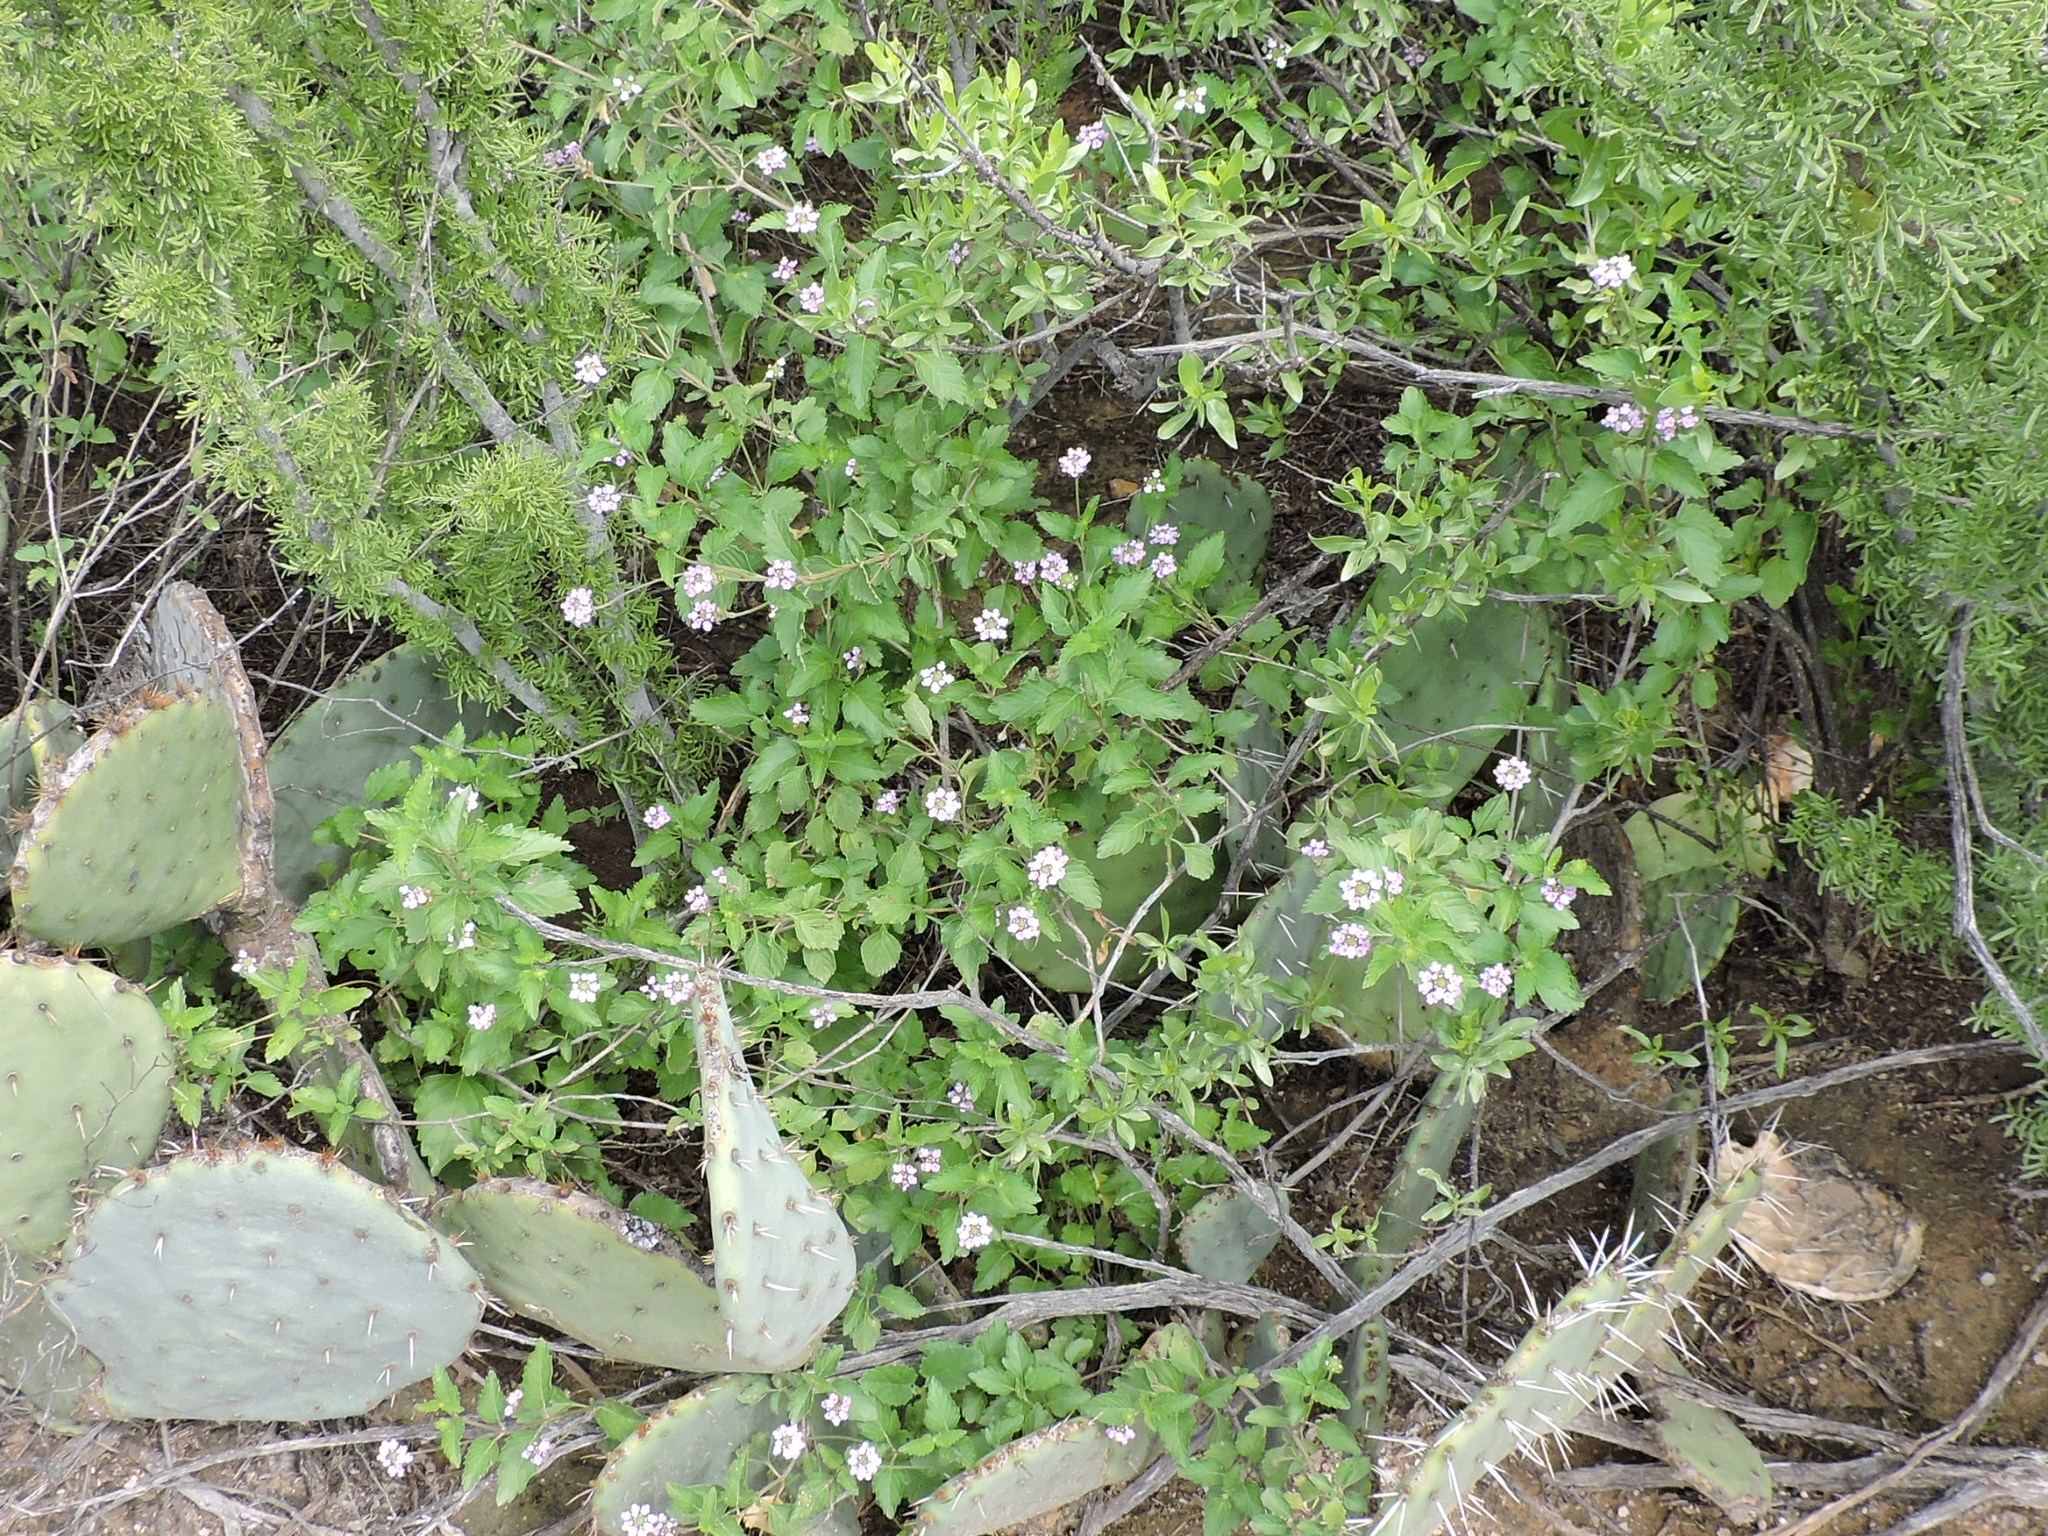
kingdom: Plantae
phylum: Tracheophyta
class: Magnoliopsida
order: Lamiales
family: Verbenaceae
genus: Lantana
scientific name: Lantana achyranthifolia
